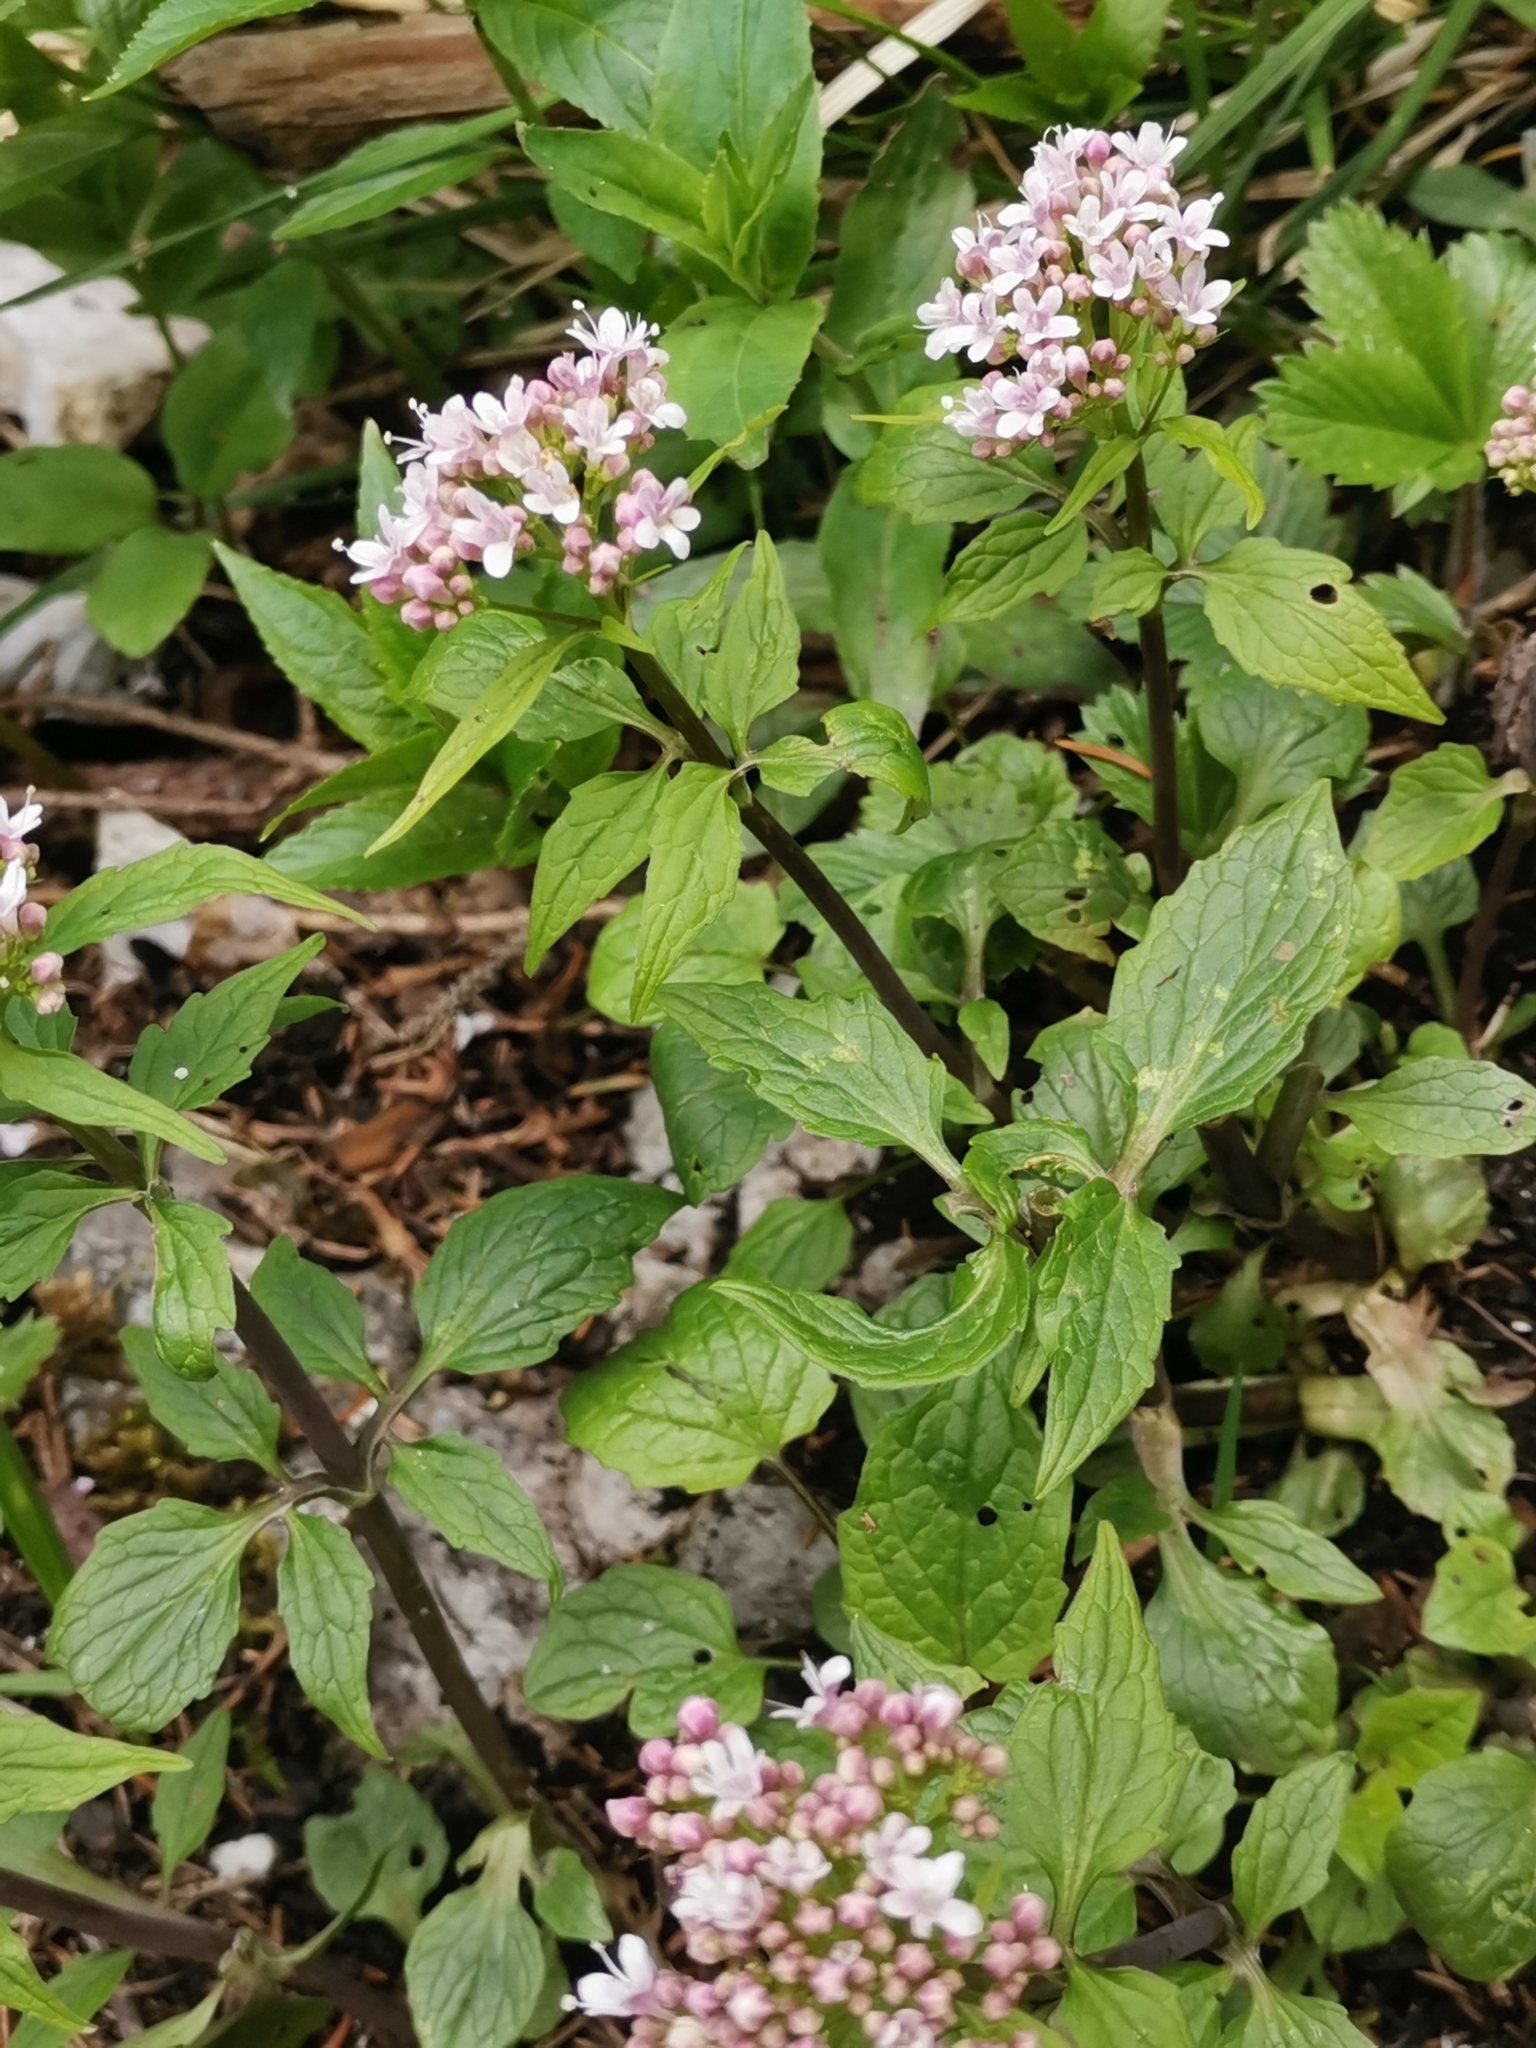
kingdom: Plantae
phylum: Tracheophyta
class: Magnoliopsida
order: Dipsacales
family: Caprifoliaceae
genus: Valeriana
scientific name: Valeriana tripteris
